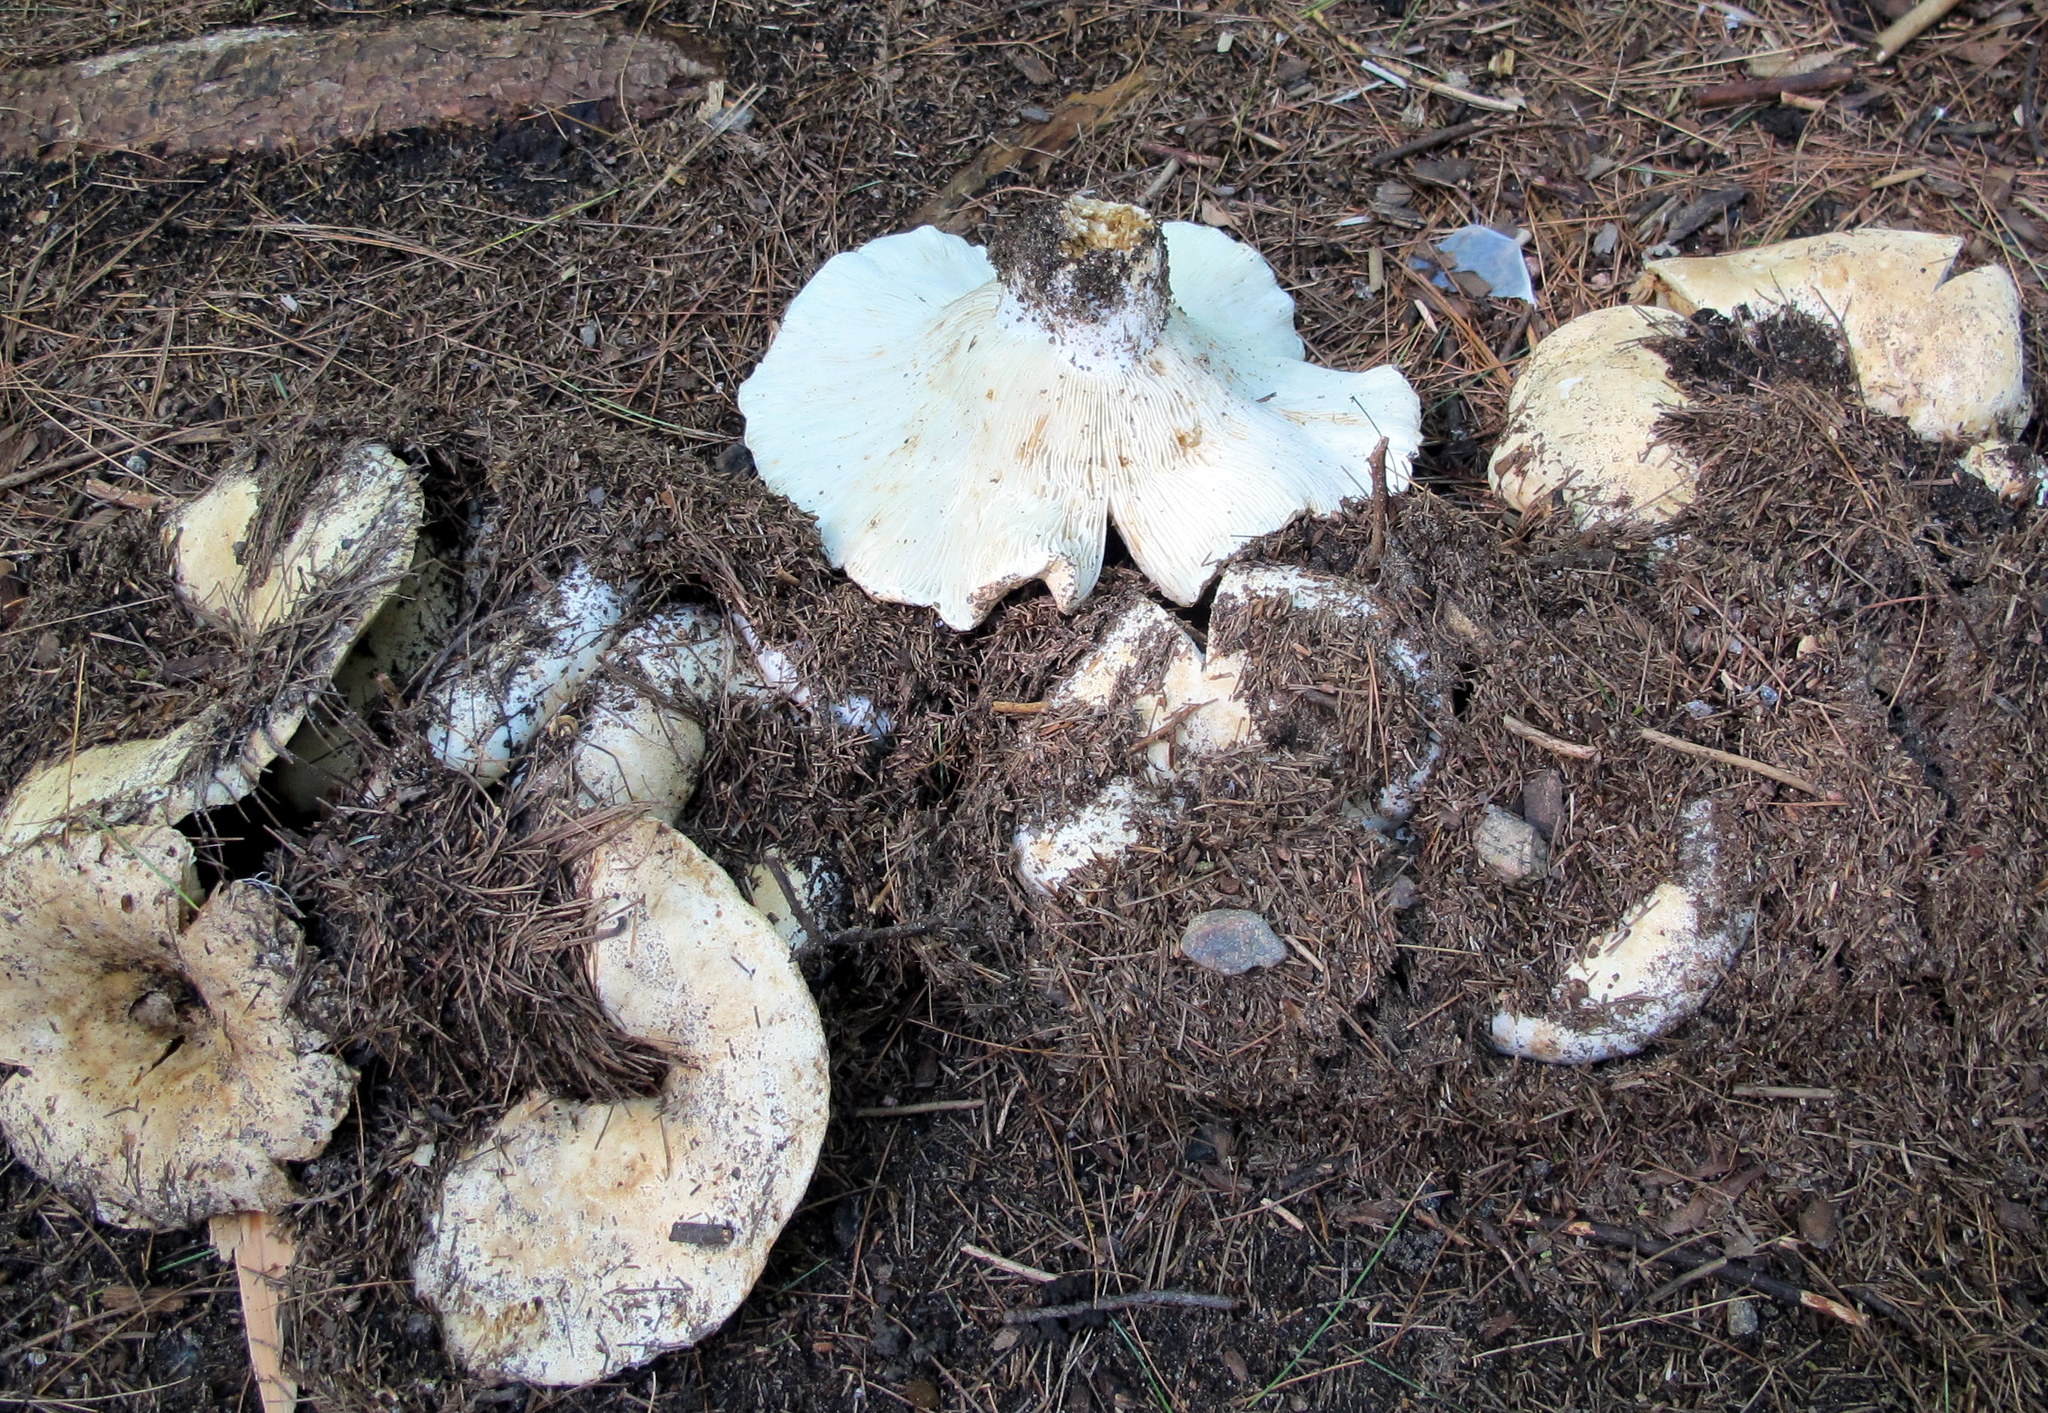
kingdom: Fungi
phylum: Basidiomycota
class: Agaricomycetes
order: Russulales
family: Russulaceae
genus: Russula
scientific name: Russula brevipes
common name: Short-stemmed russula
